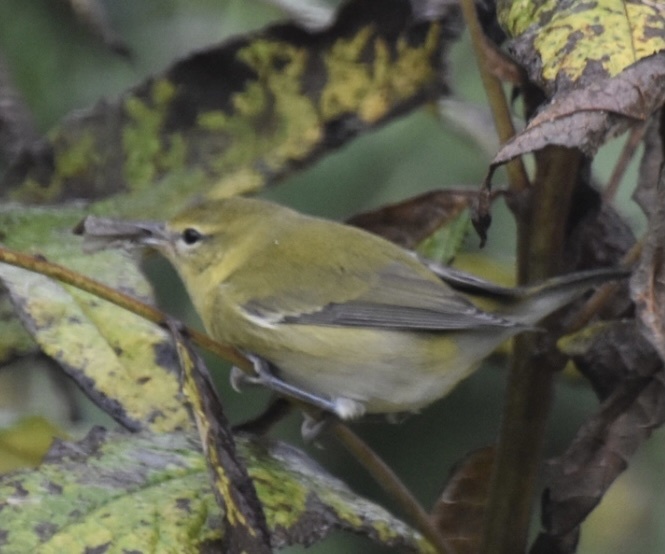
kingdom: Animalia
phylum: Chordata
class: Aves
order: Passeriformes
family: Parulidae
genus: Leiothlypis
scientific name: Leiothlypis peregrina
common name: Tennessee warbler
